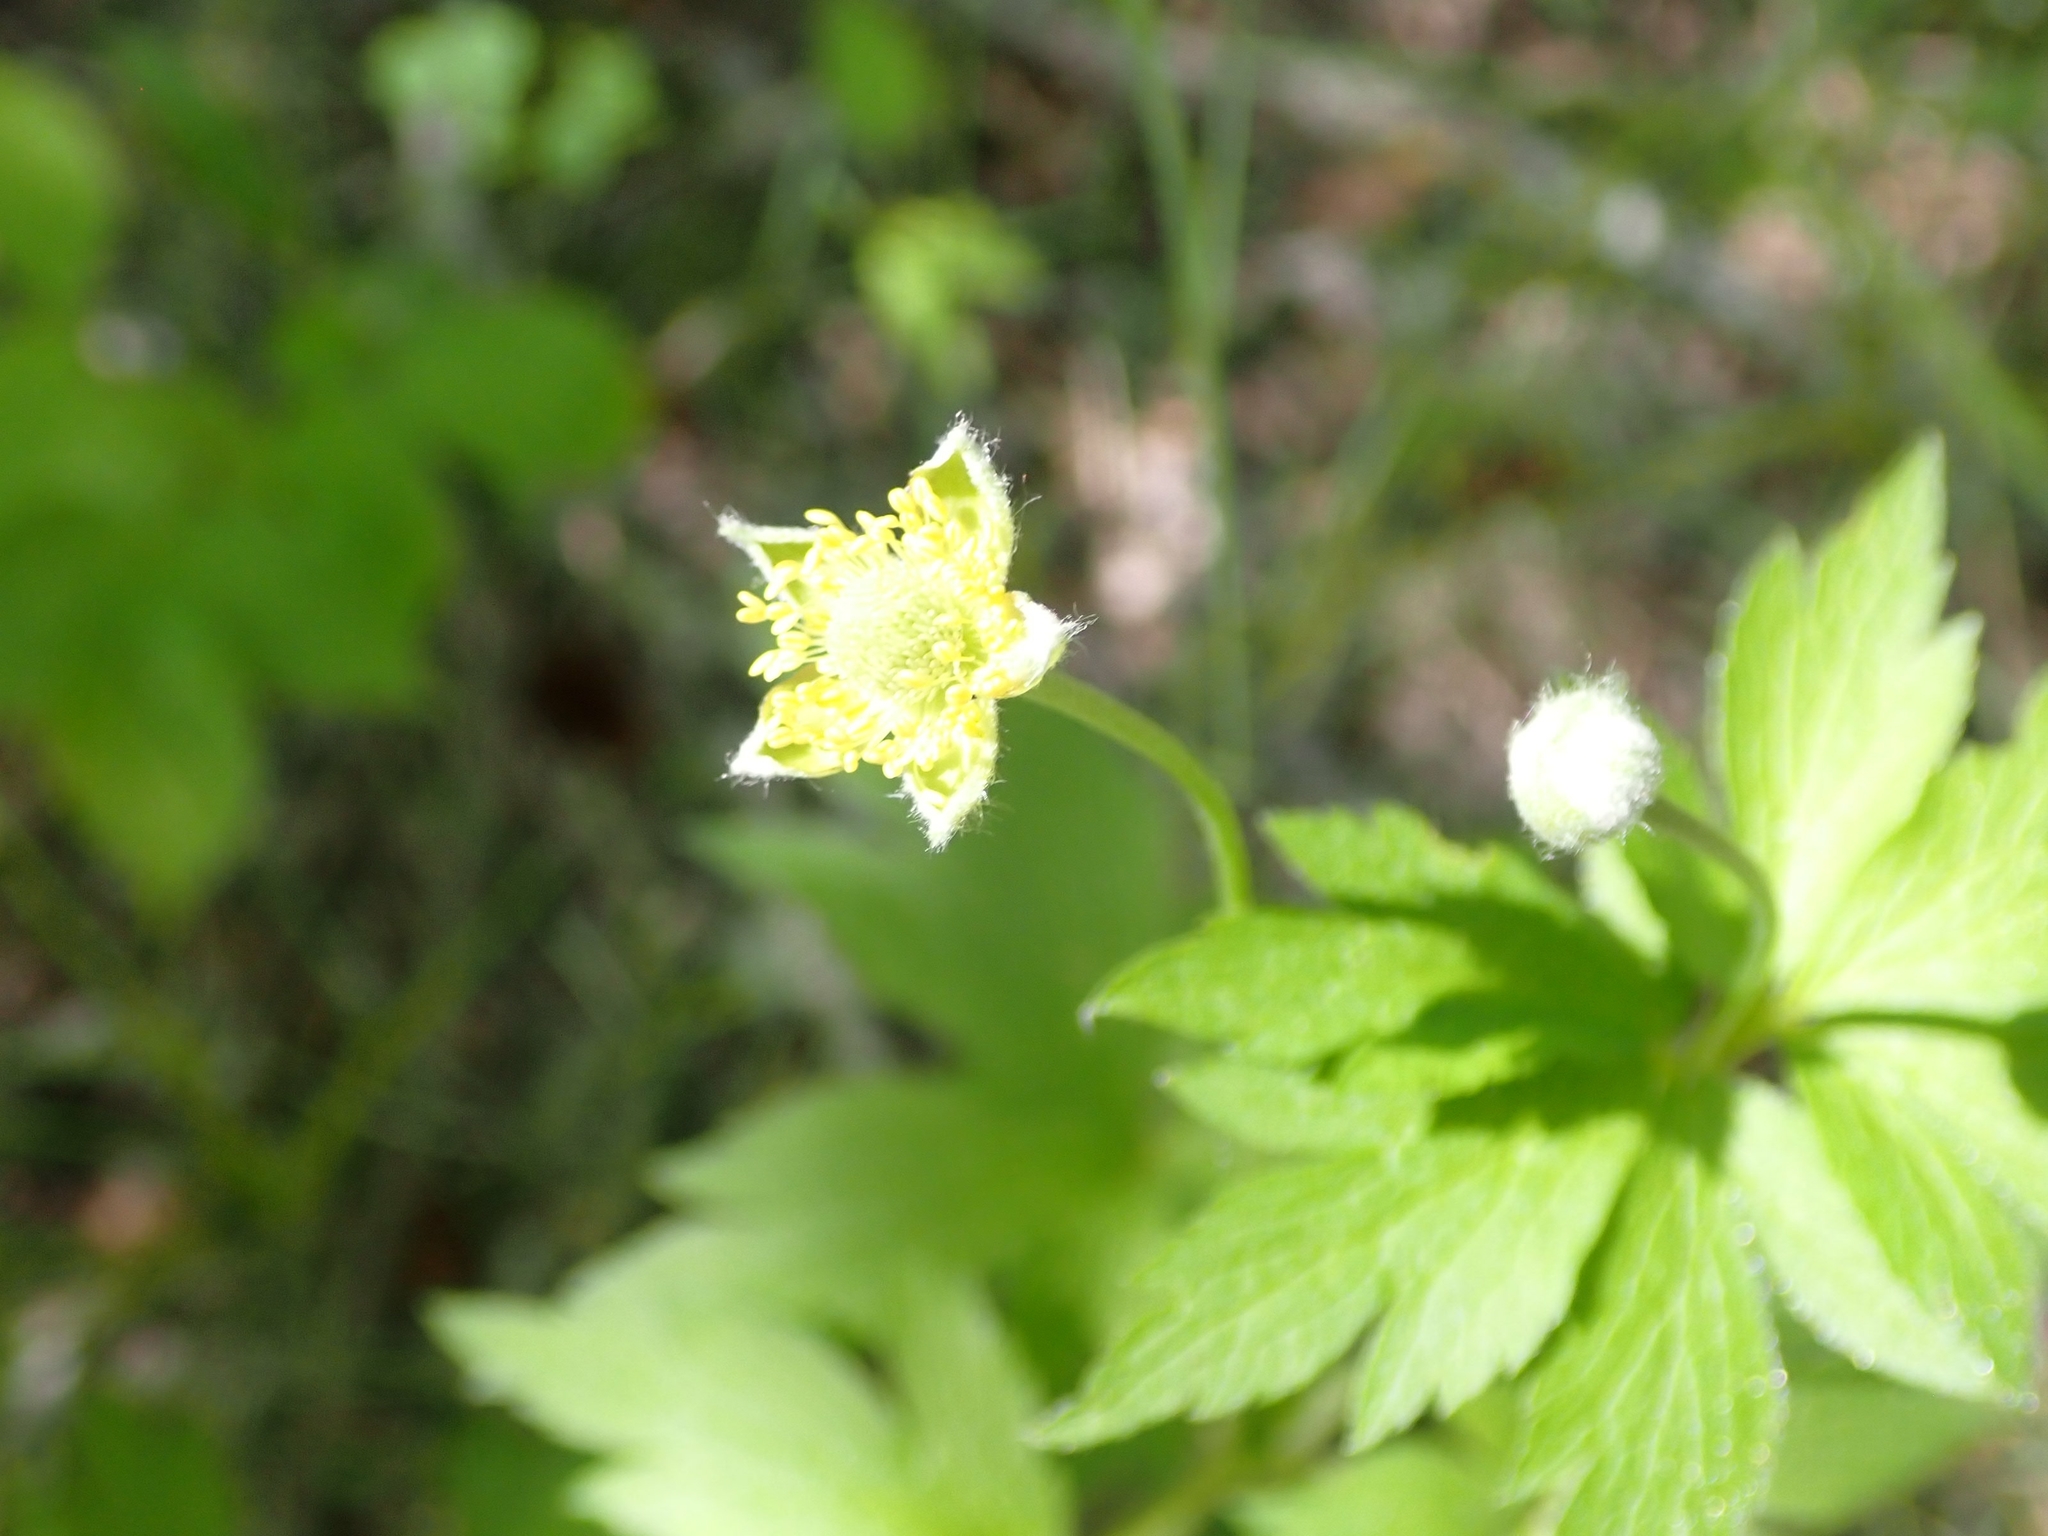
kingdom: Plantae
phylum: Tracheophyta
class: Magnoliopsida
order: Ranunculales
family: Ranunculaceae
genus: Anemone
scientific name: Anemone virginiana
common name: Tall anemone
